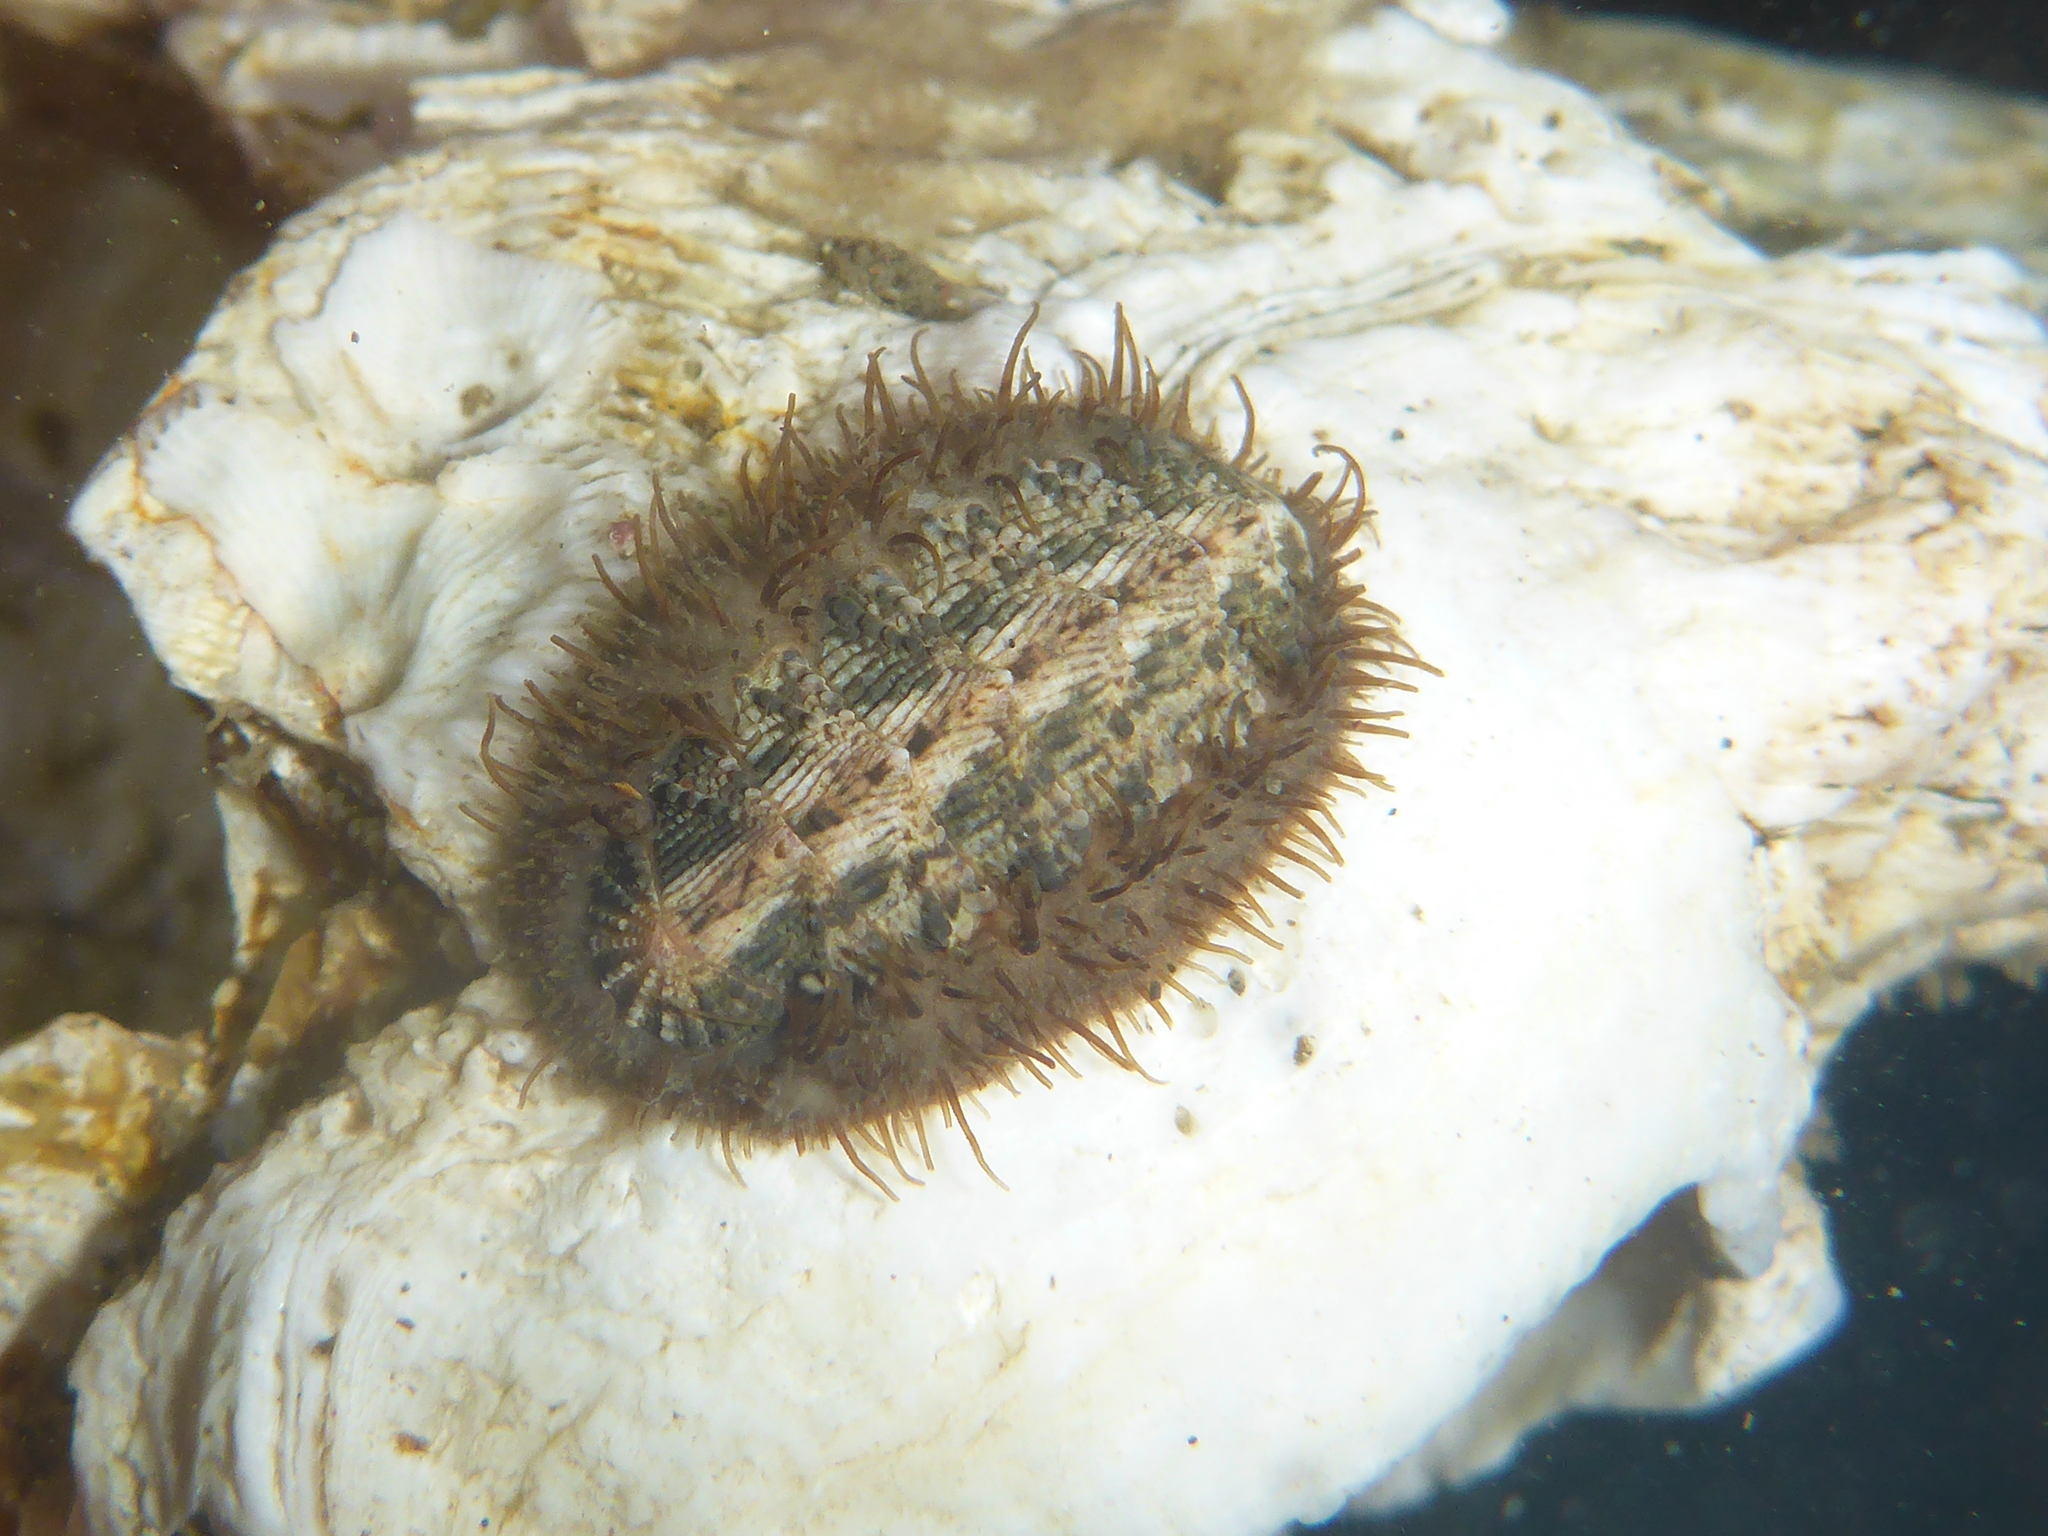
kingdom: Animalia
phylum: Mollusca
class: Polyplacophora
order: Chitonida
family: Mopaliidae
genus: Mopalia
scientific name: Mopalia muscosa
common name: Mossy chiton
